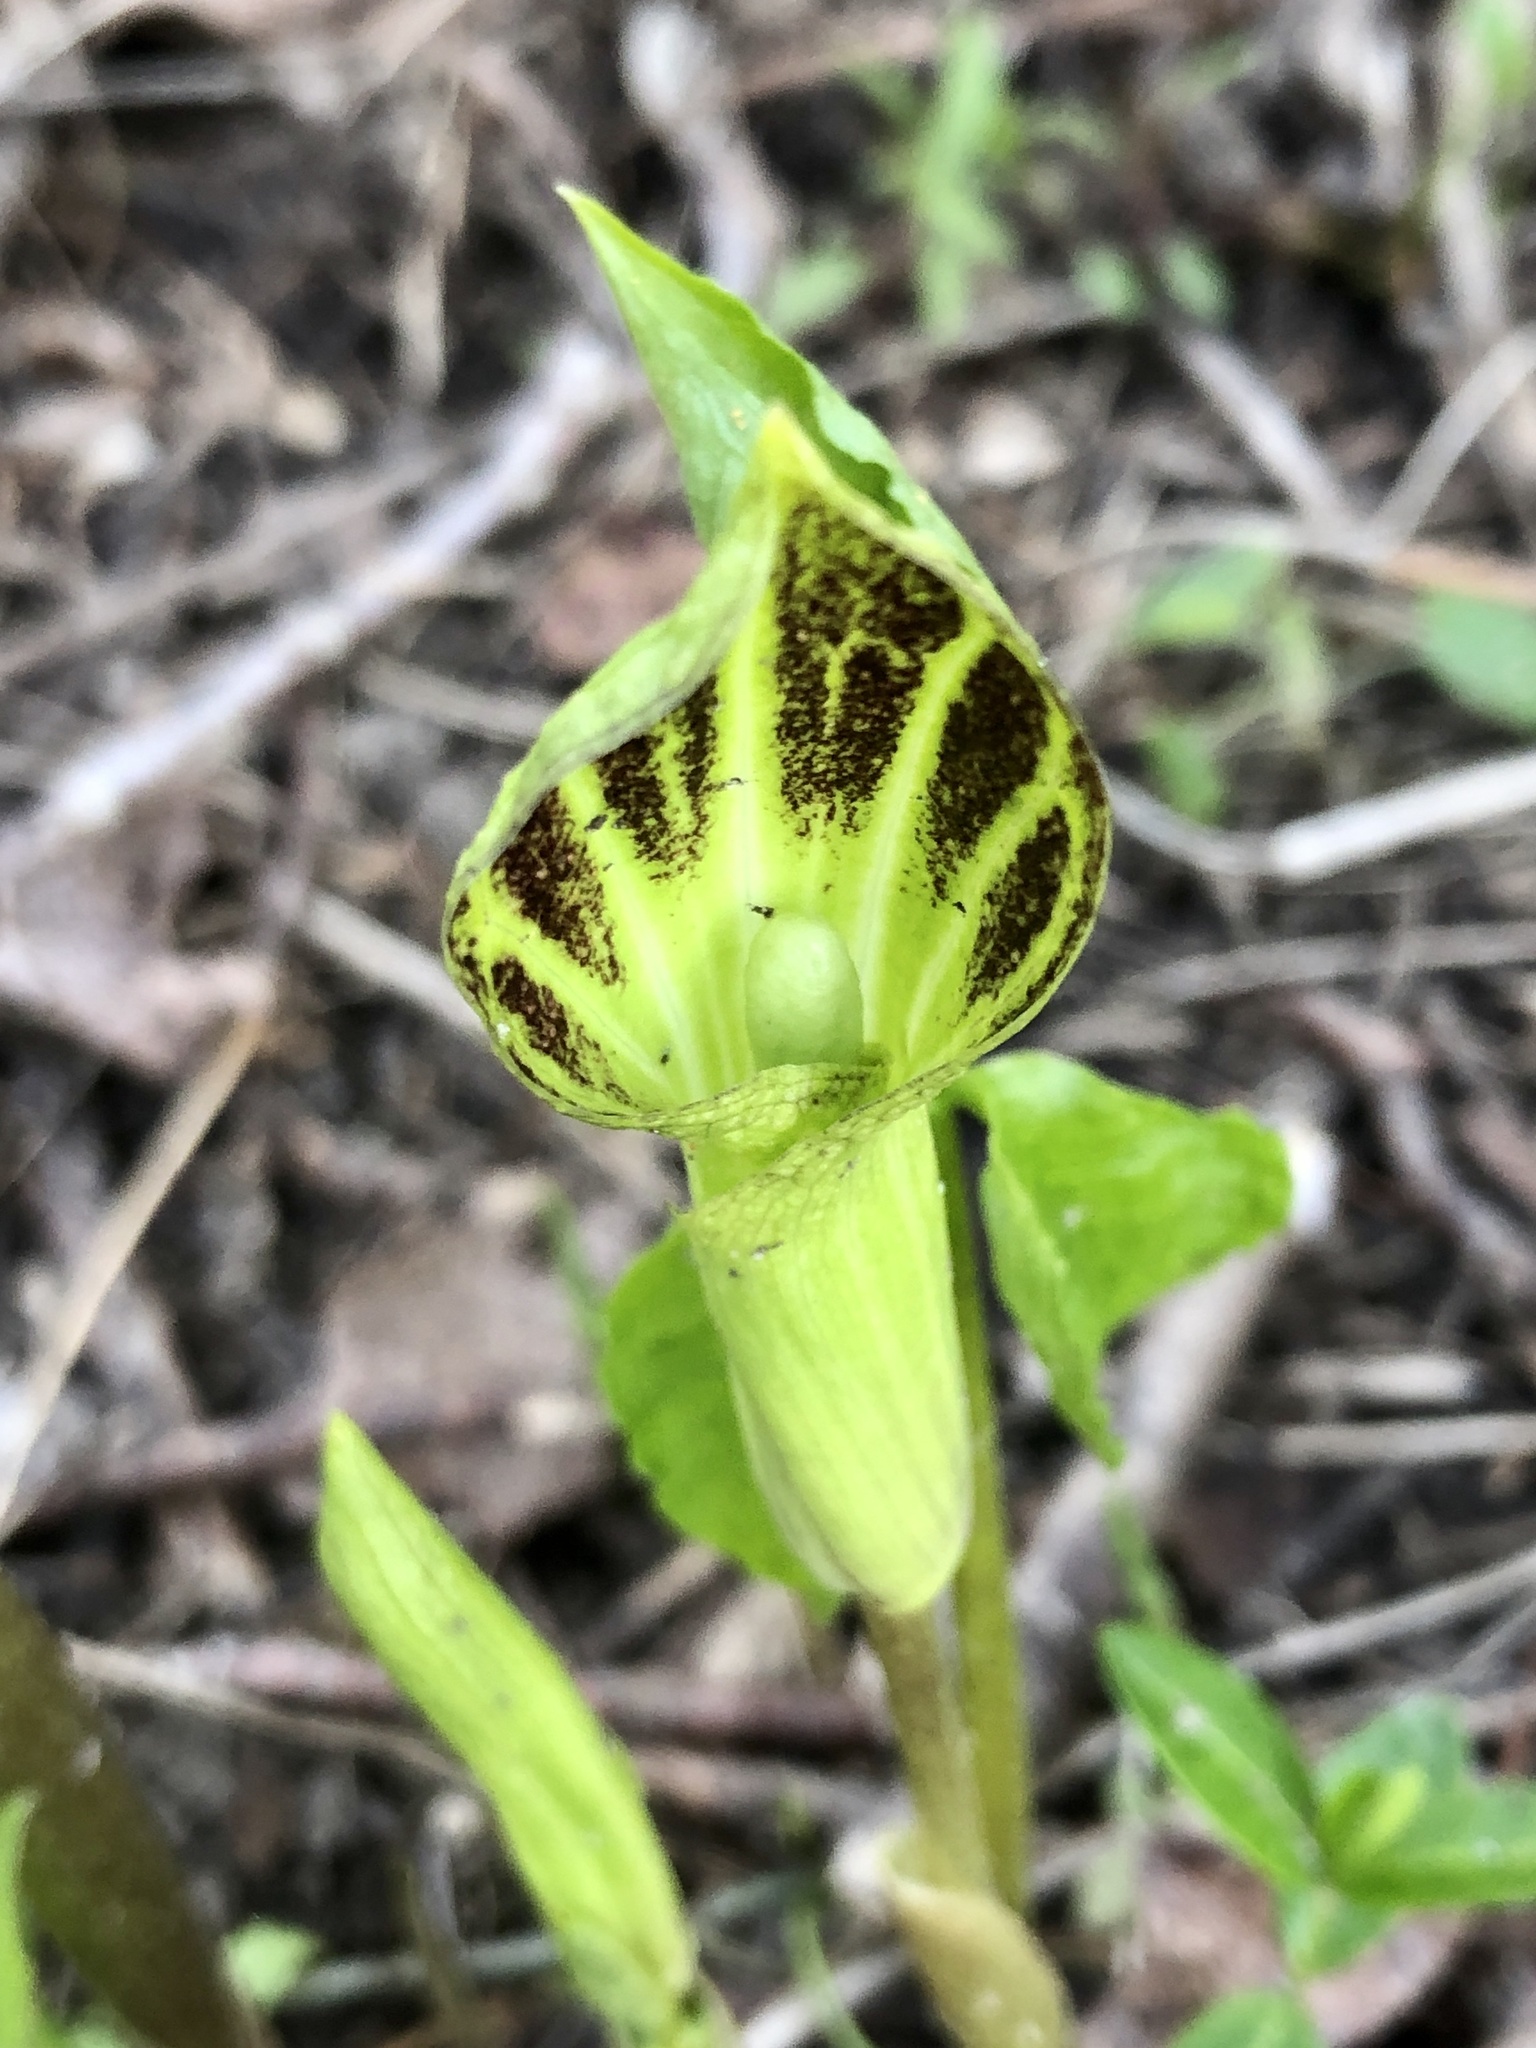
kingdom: Plantae
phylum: Tracheophyta
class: Liliopsida
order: Alismatales
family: Araceae
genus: Arisaema
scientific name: Arisaema triphyllum
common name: Jack-in-the-pulpit
